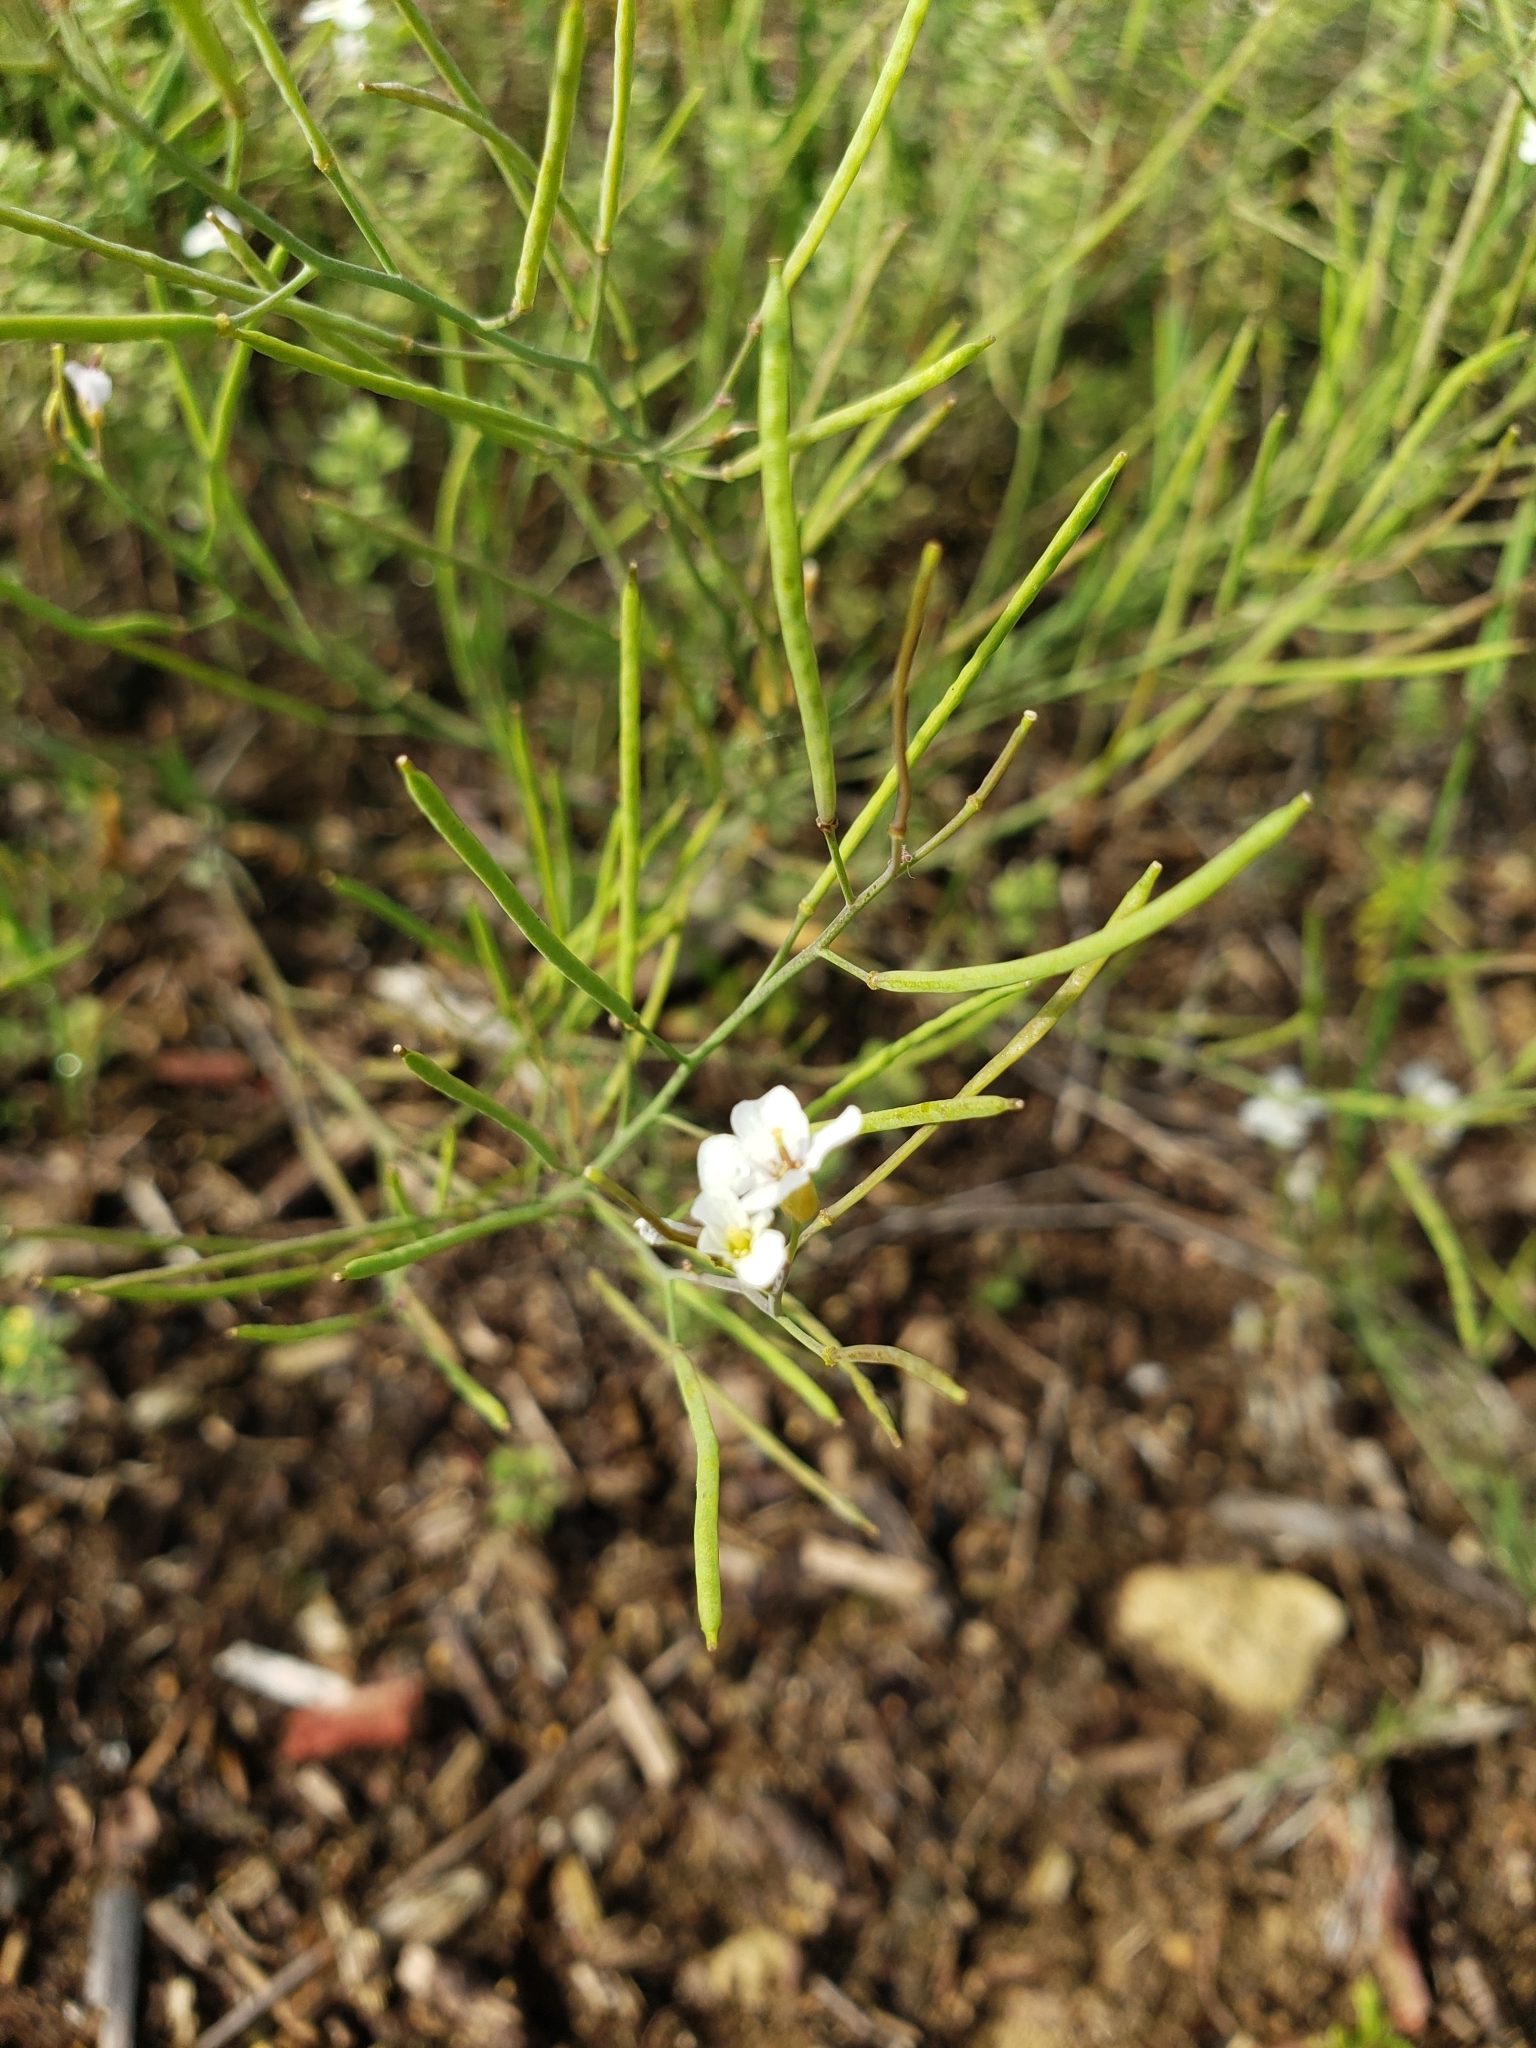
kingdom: Plantae
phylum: Tracheophyta
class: Magnoliopsida
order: Brassicales
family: Brassicaceae
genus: Arabidopsis
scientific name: Arabidopsis lyrata
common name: Lyrate rockcress
